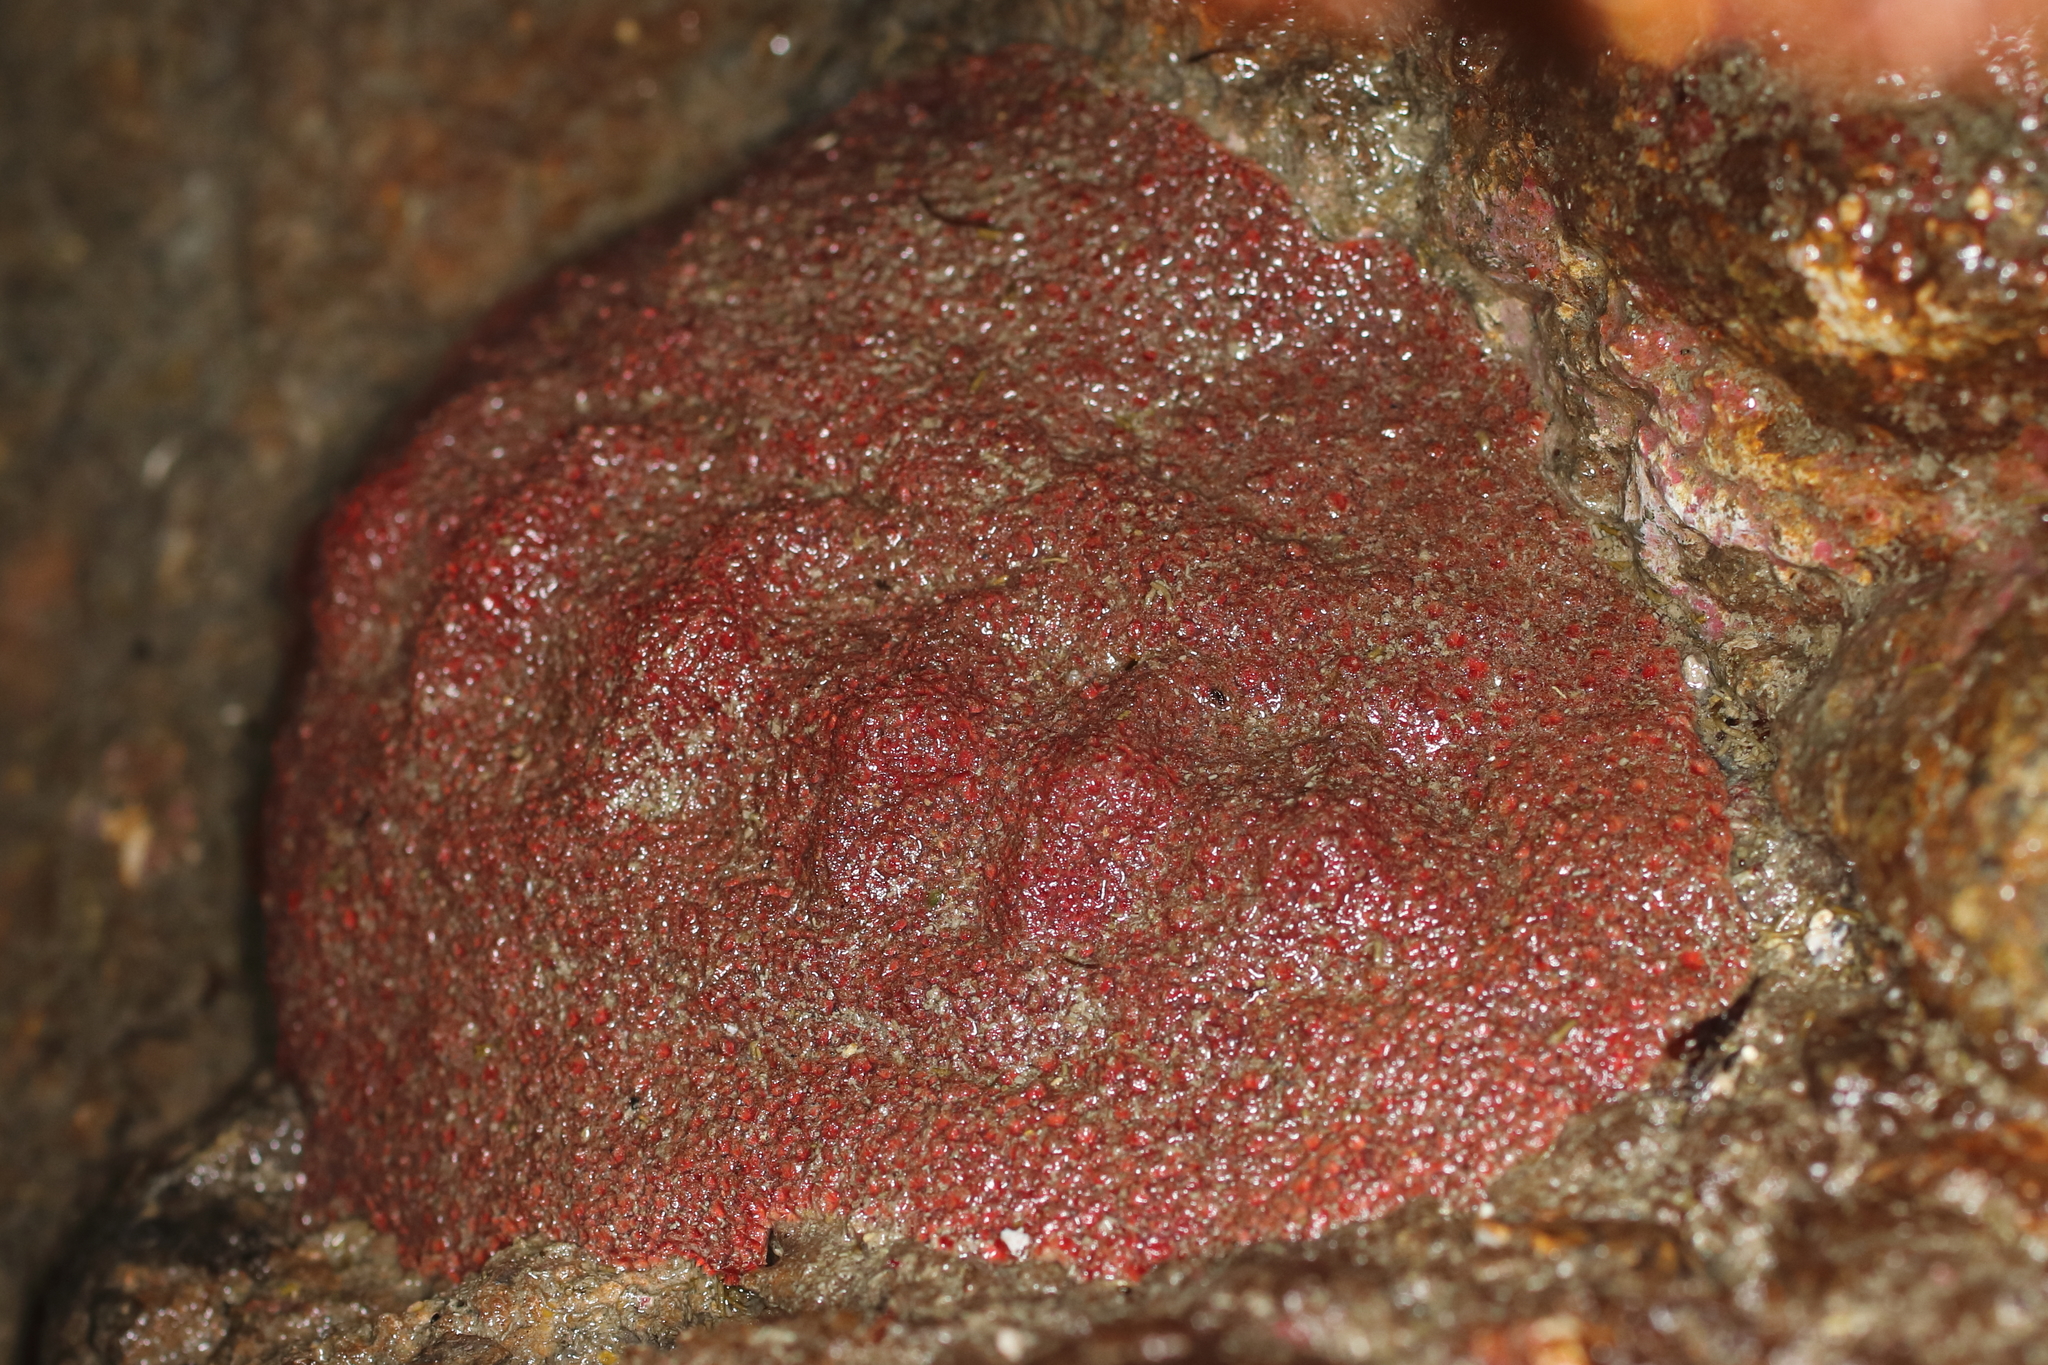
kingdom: Animalia
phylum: Mollusca
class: Polyplacophora
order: Chitonida
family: Acanthochitonidae
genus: Cryptochiton
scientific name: Cryptochiton stelleri
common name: Giant pacific chiton
